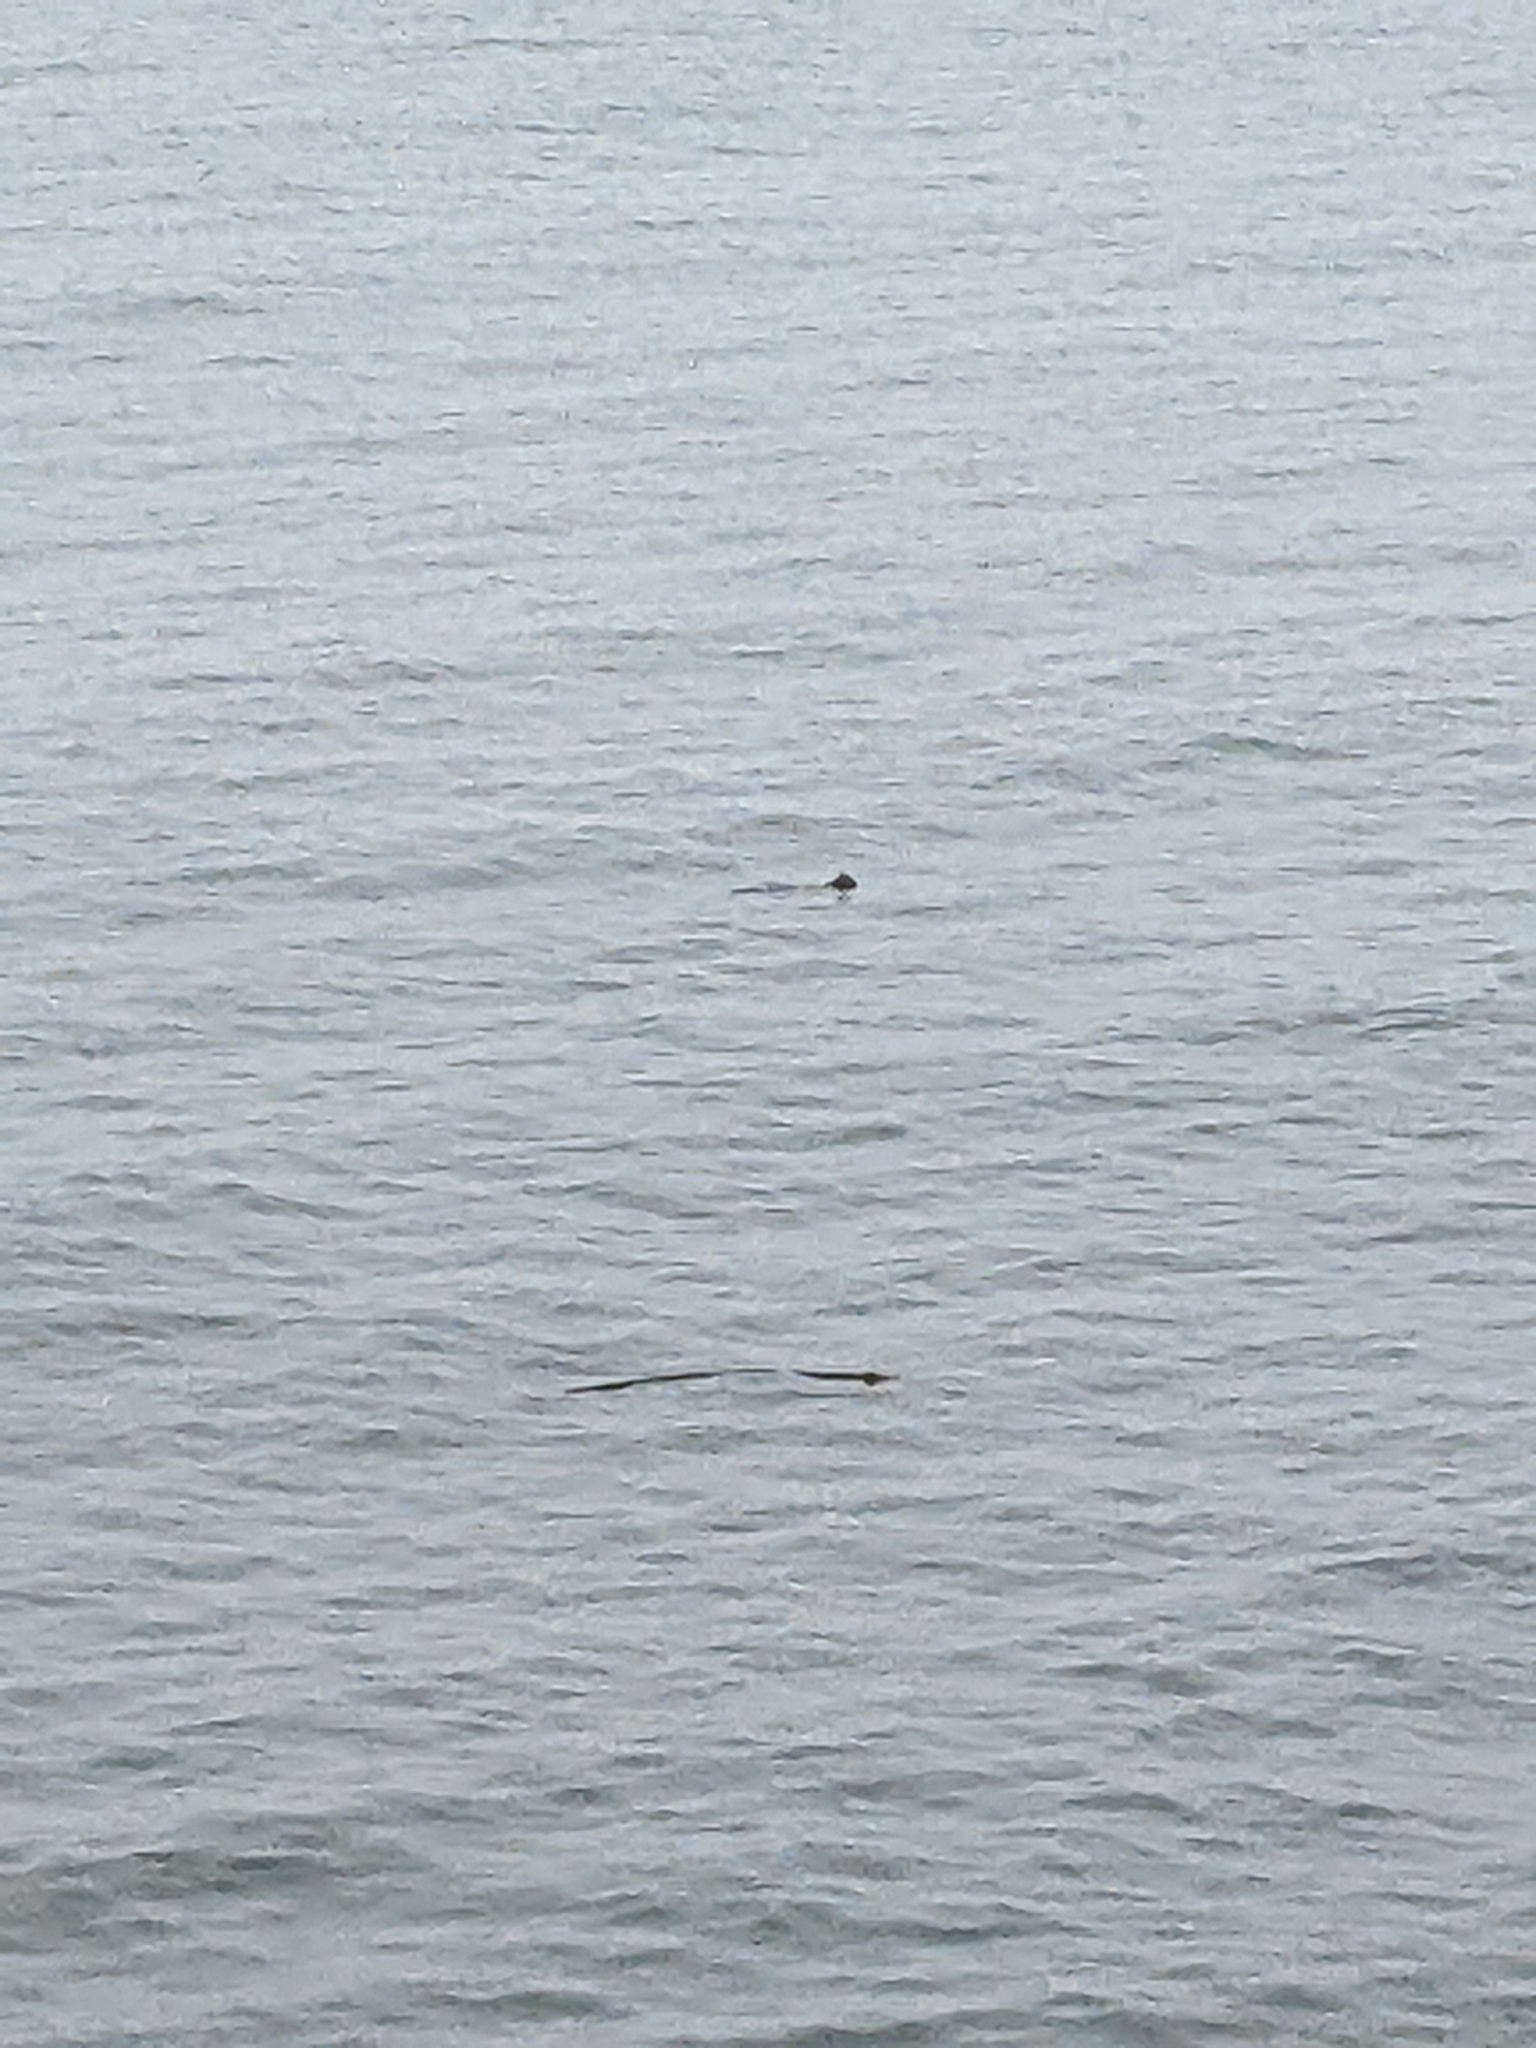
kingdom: Animalia
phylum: Chordata
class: Mammalia
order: Carnivora
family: Phocidae
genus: Phoca
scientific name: Phoca vitulina
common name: Harbor seal
